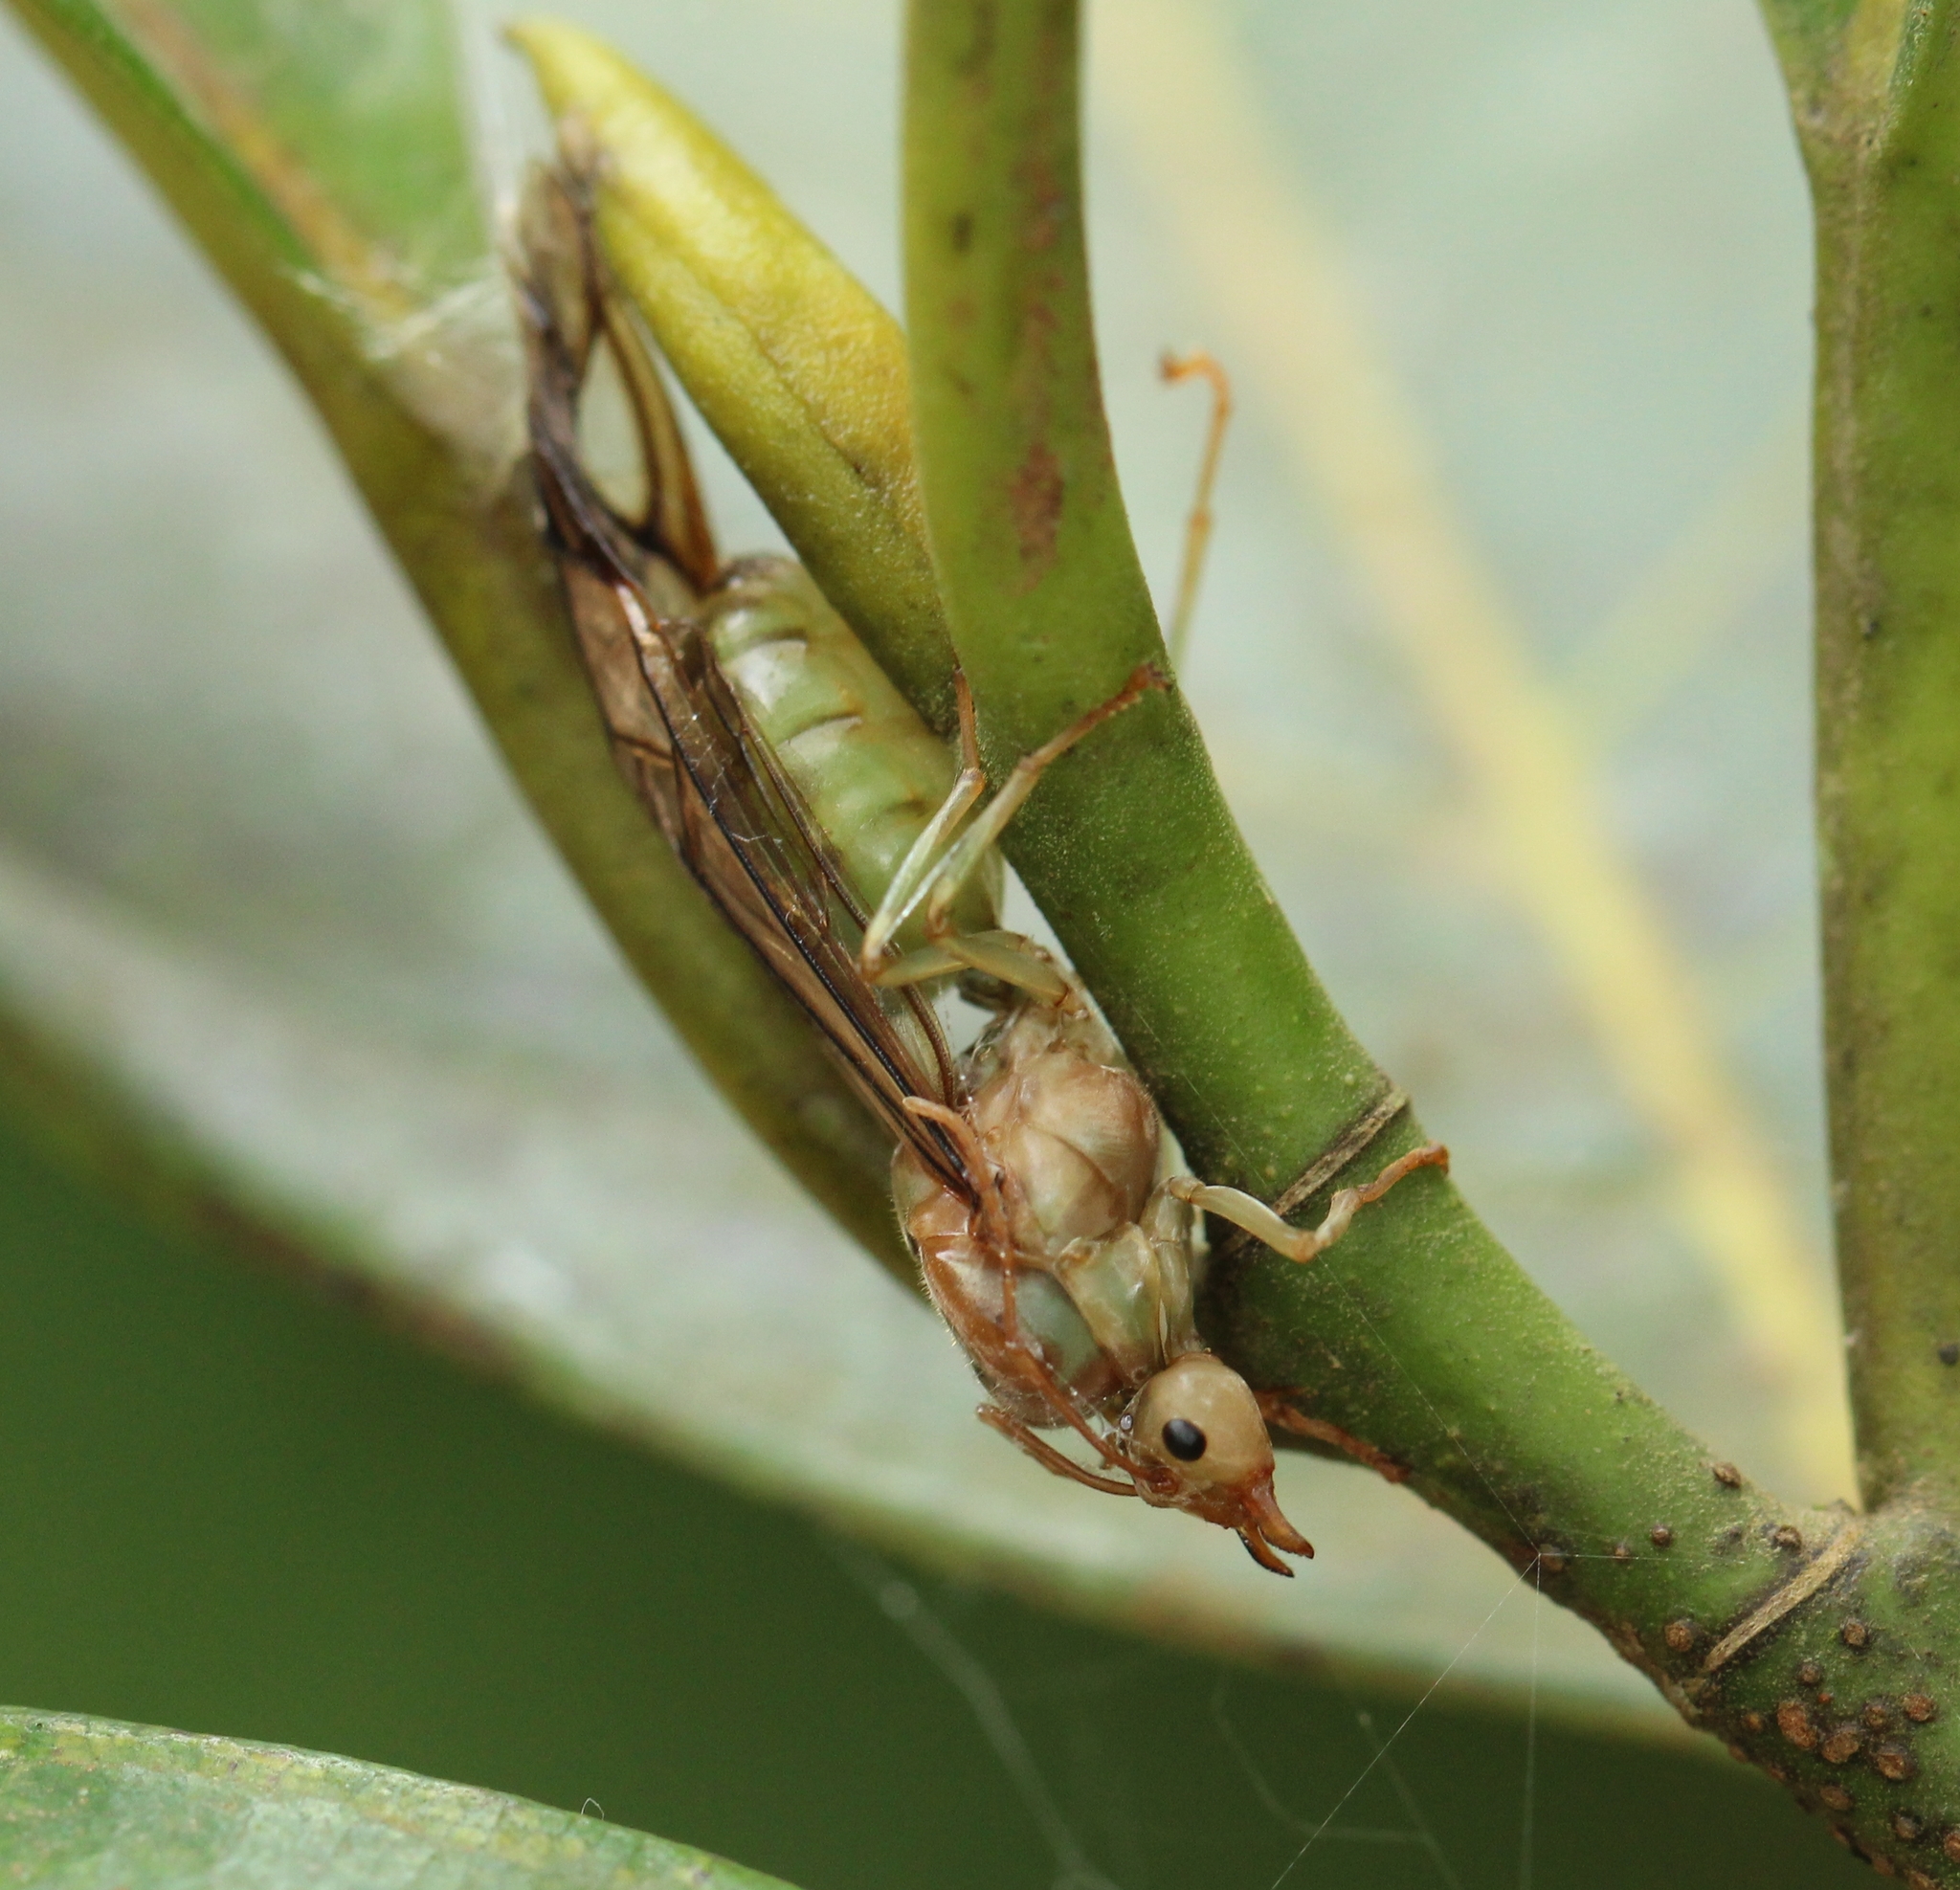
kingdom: Animalia
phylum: Arthropoda
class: Insecta
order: Hymenoptera
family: Formicidae
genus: Oecophylla
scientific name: Oecophylla smaragdina
